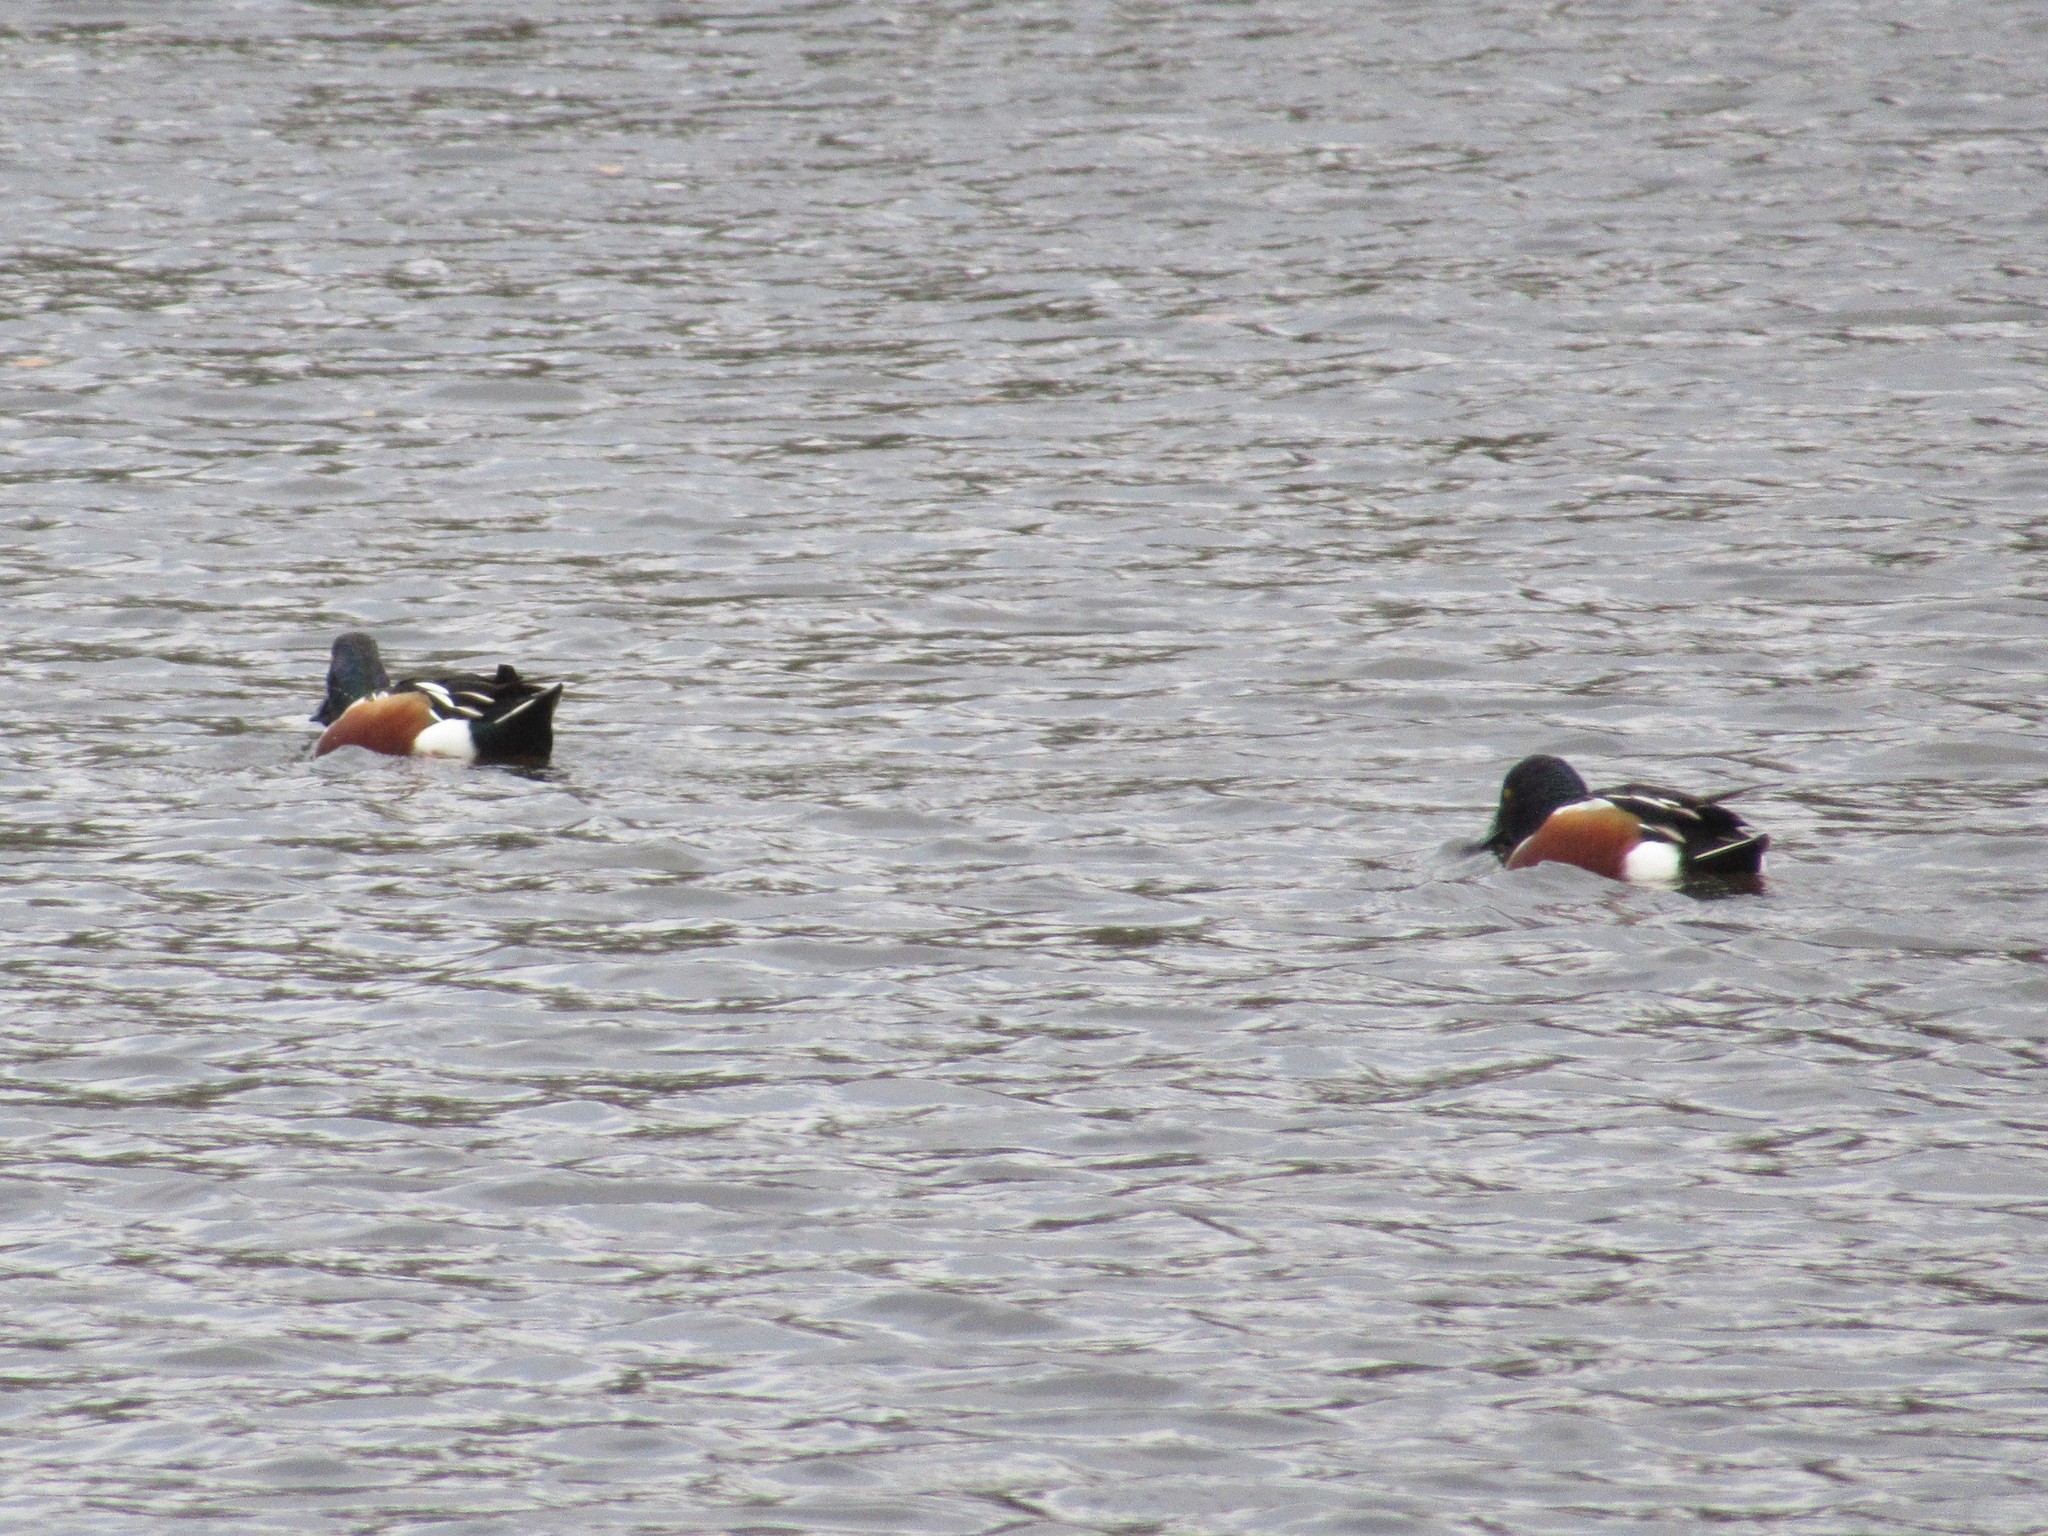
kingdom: Animalia
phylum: Chordata
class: Aves
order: Anseriformes
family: Anatidae
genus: Spatula
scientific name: Spatula clypeata
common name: Northern shoveler
